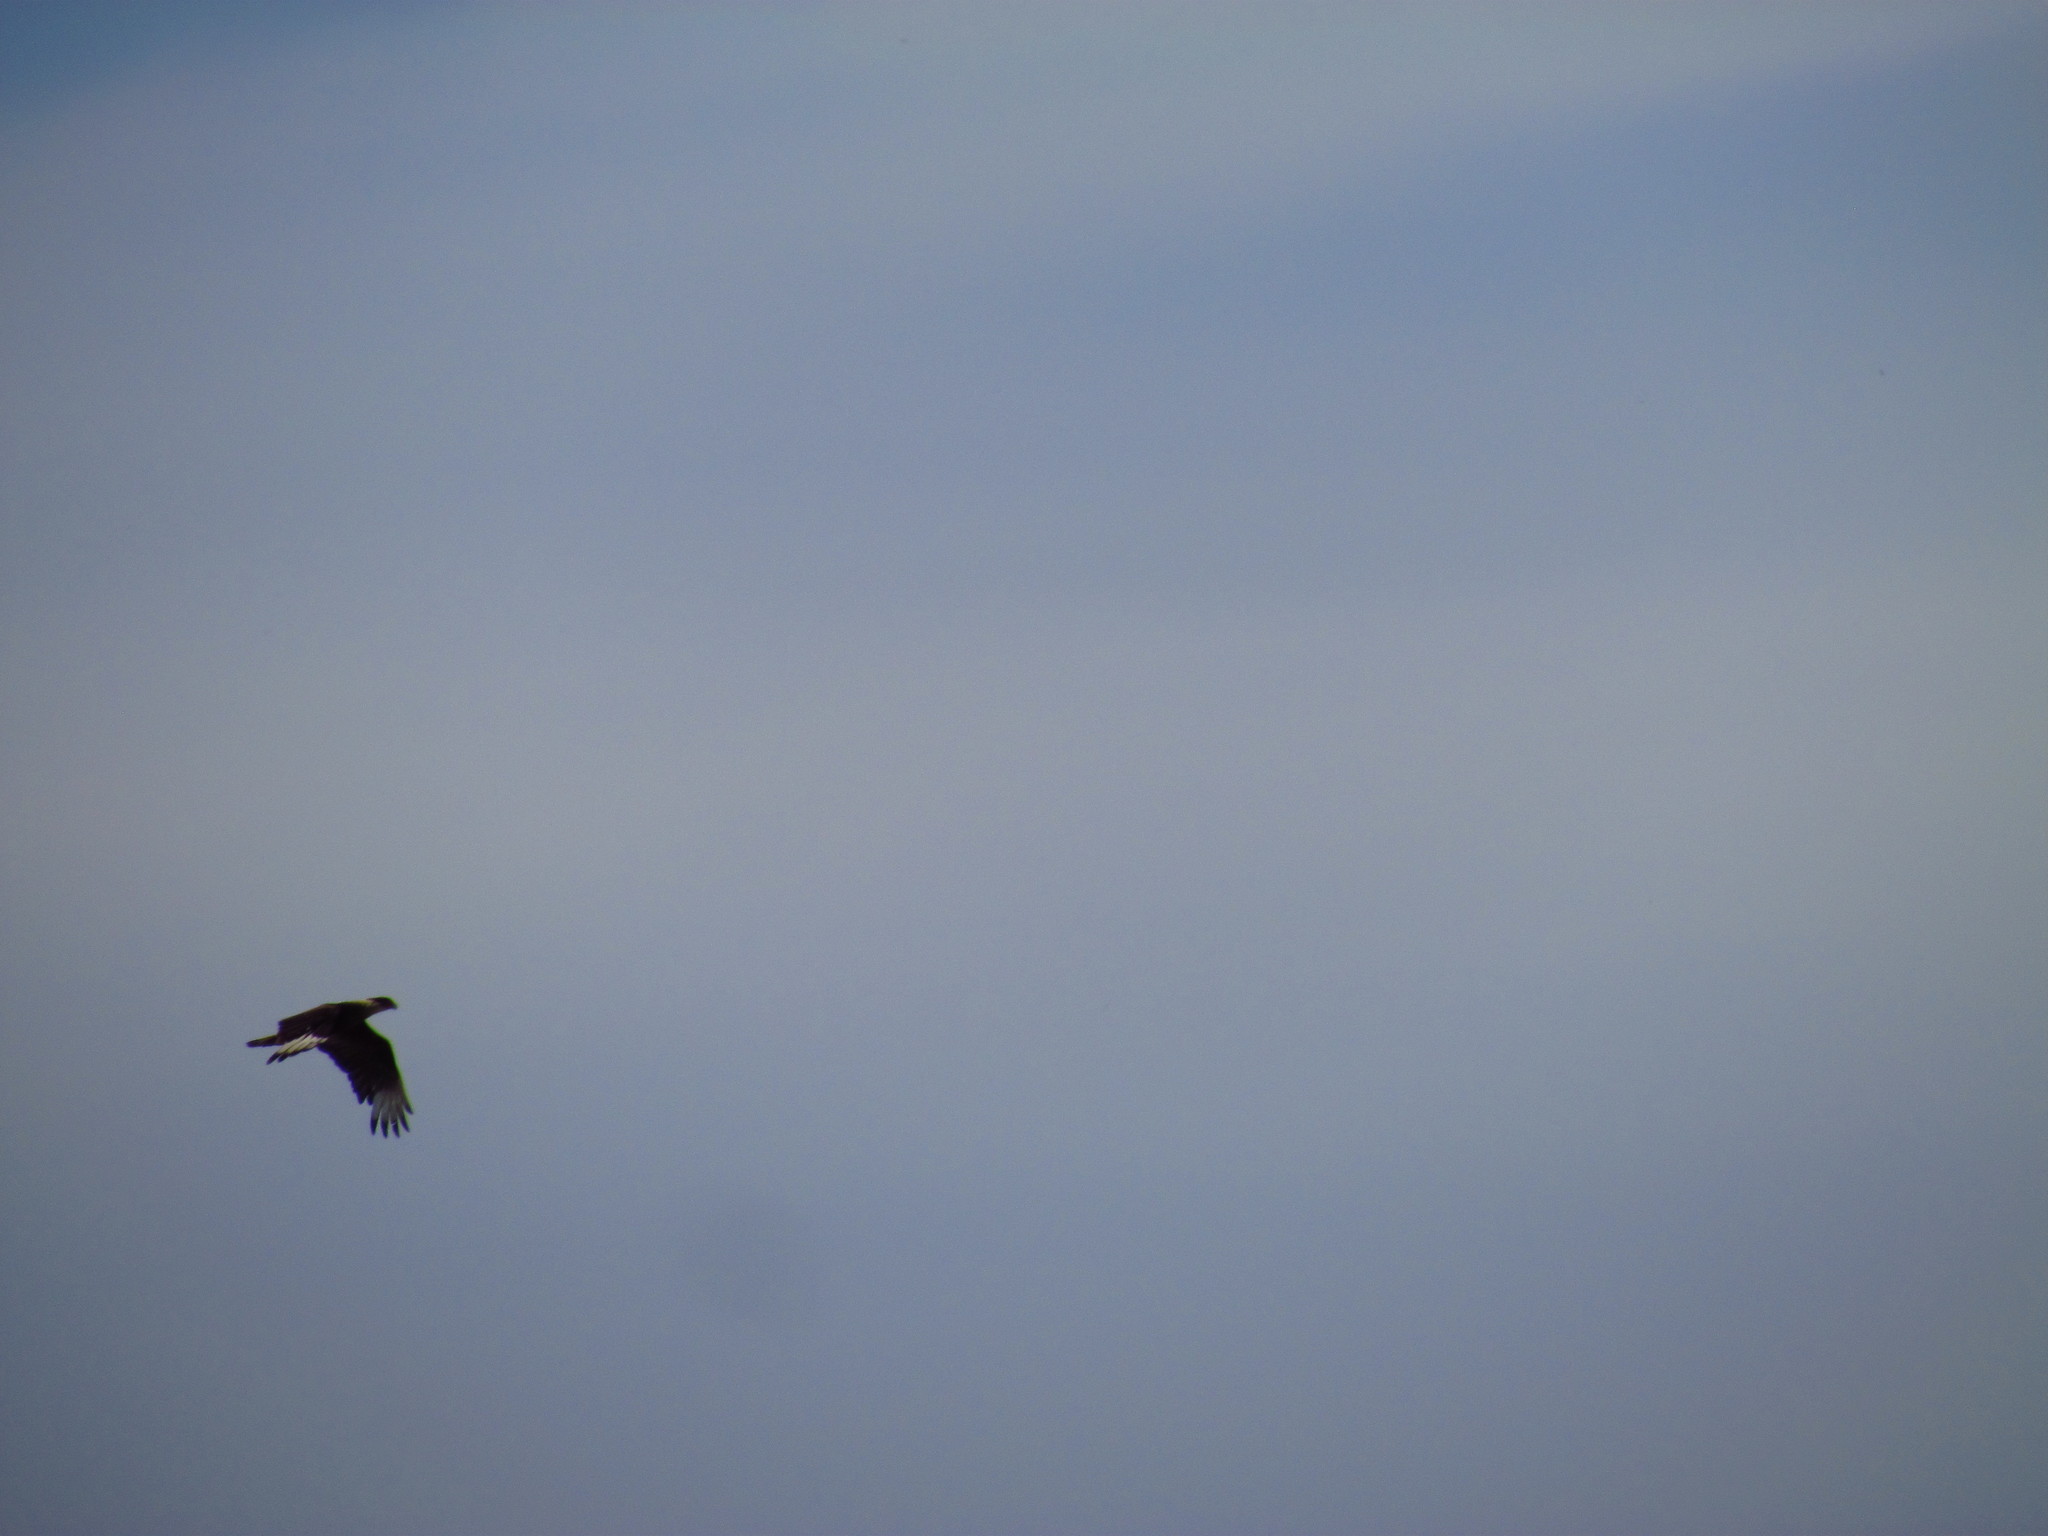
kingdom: Animalia
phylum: Chordata
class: Aves
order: Falconiformes
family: Falconidae
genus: Caracara
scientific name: Caracara plancus
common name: Southern caracara
